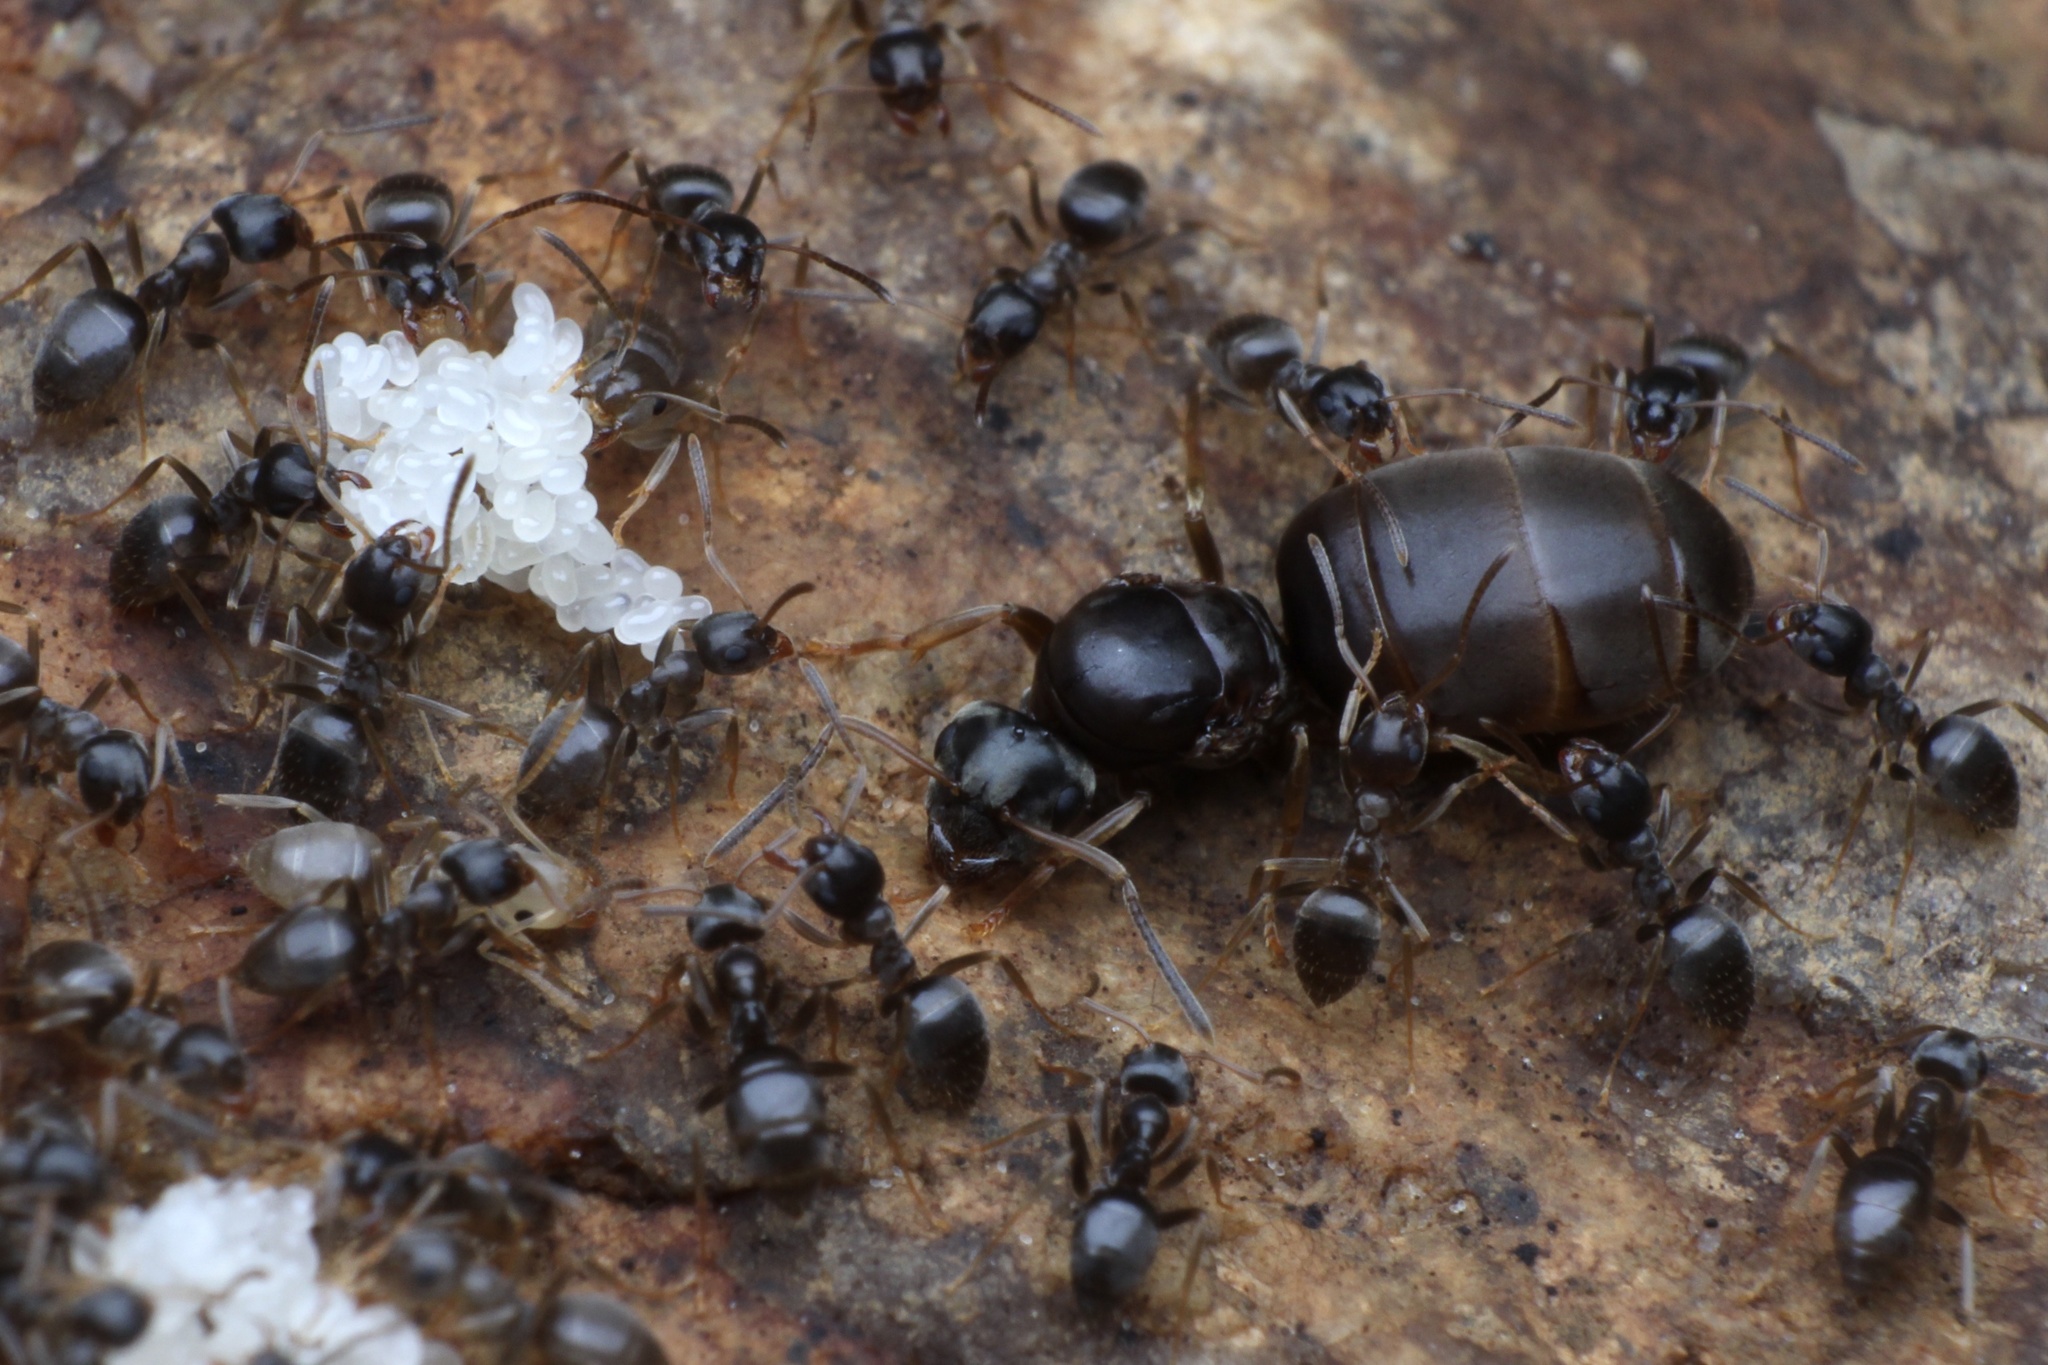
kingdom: Animalia
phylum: Arthropoda
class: Insecta
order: Hymenoptera
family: Formicidae
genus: Lasius
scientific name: Lasius americanus
